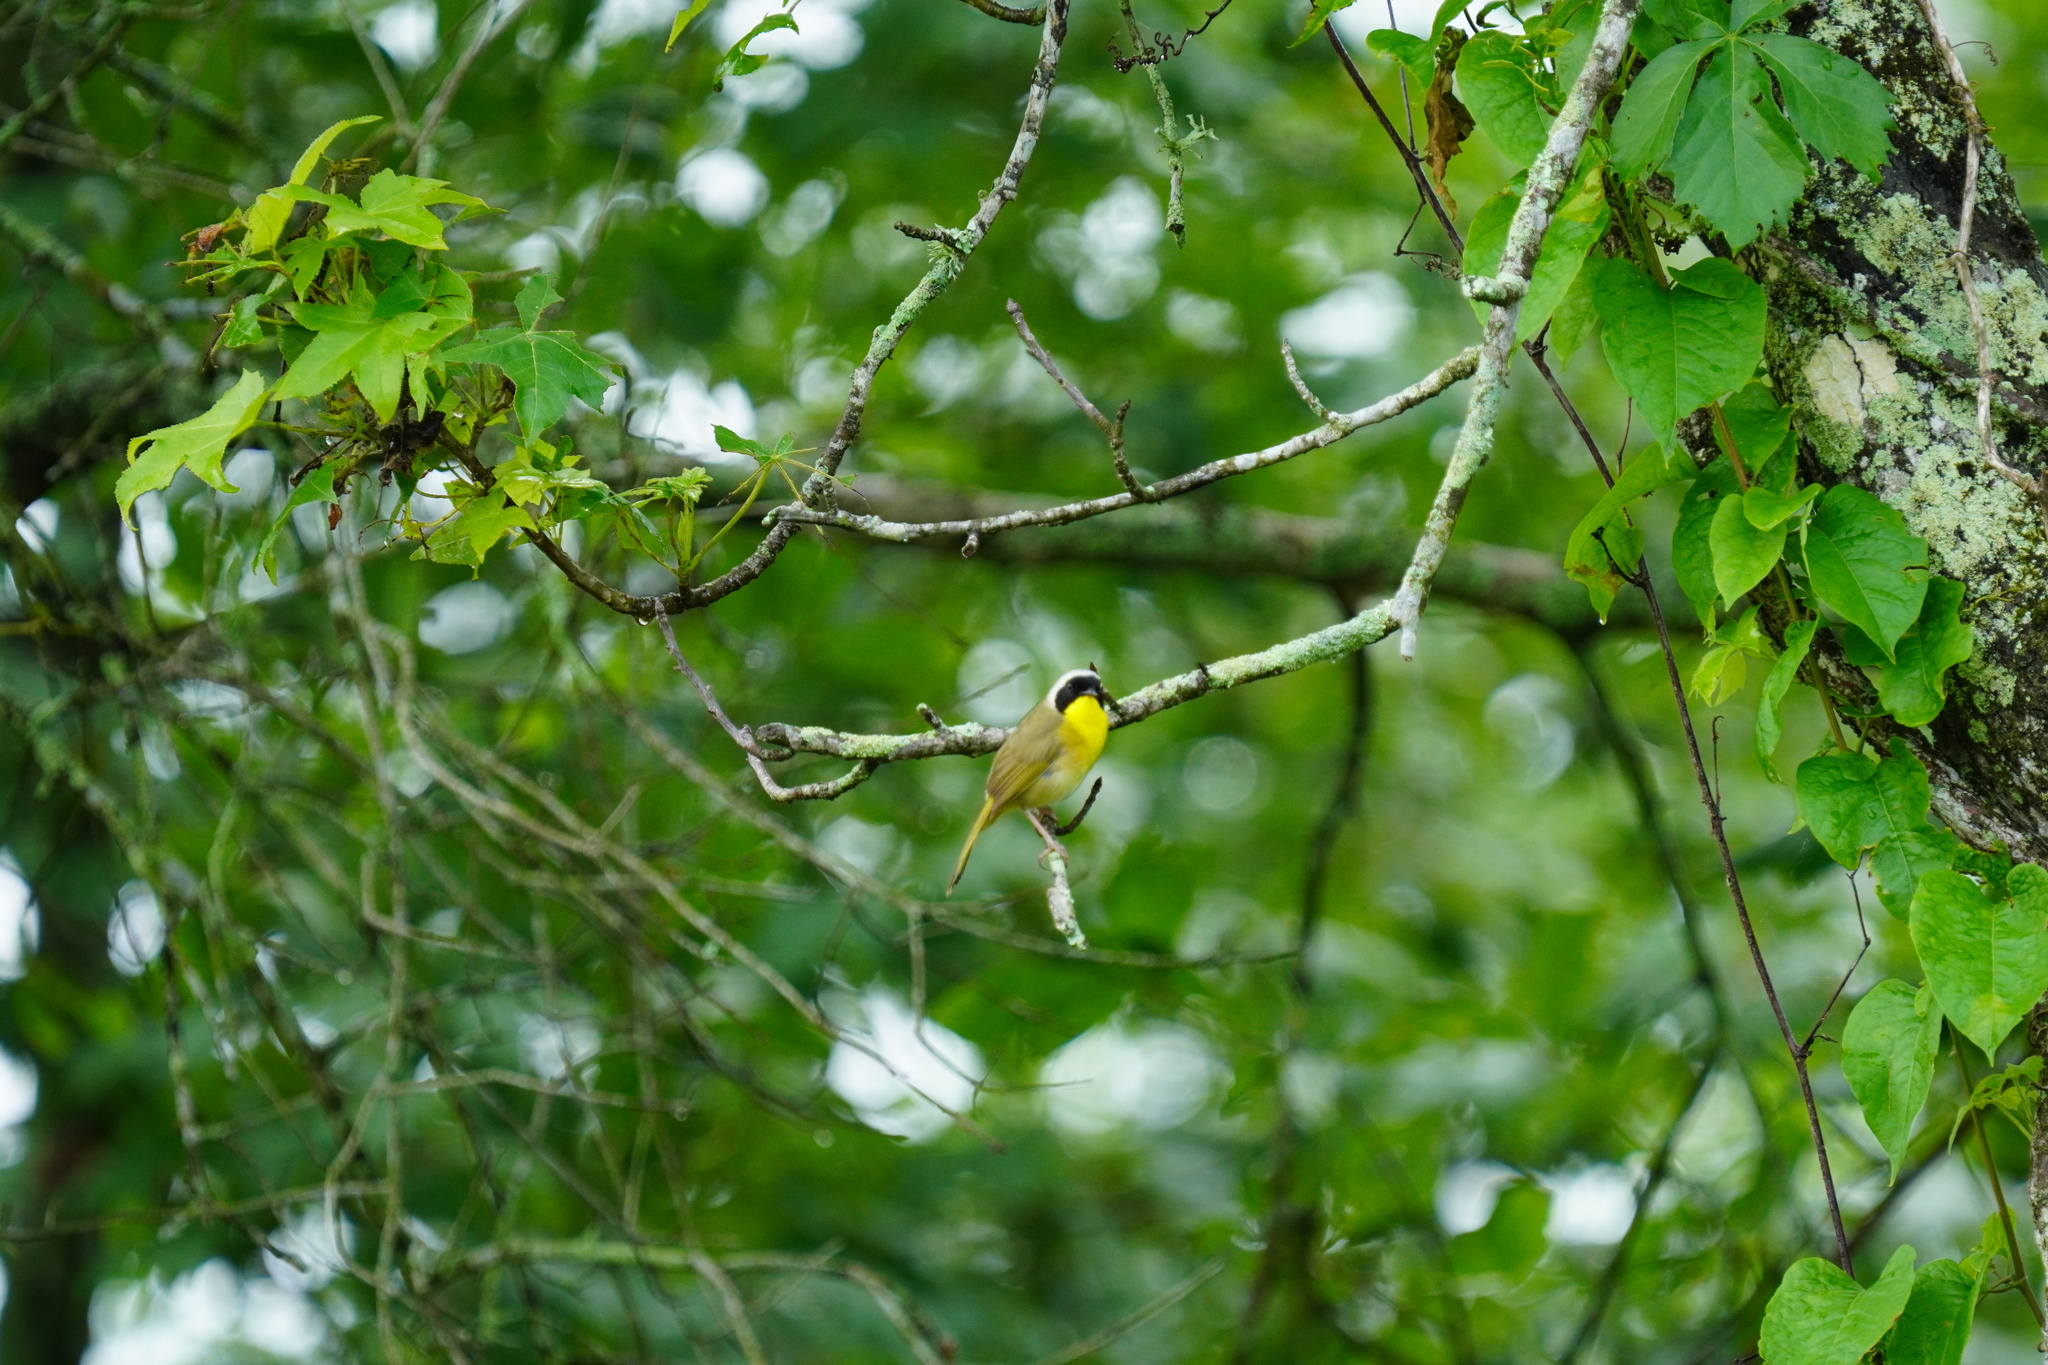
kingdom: Animalia
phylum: Chordata
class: Aves
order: Passeriformes
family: Parulidae
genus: Geothlypis
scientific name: Geothlypis trichas
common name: Common yellowthroat
